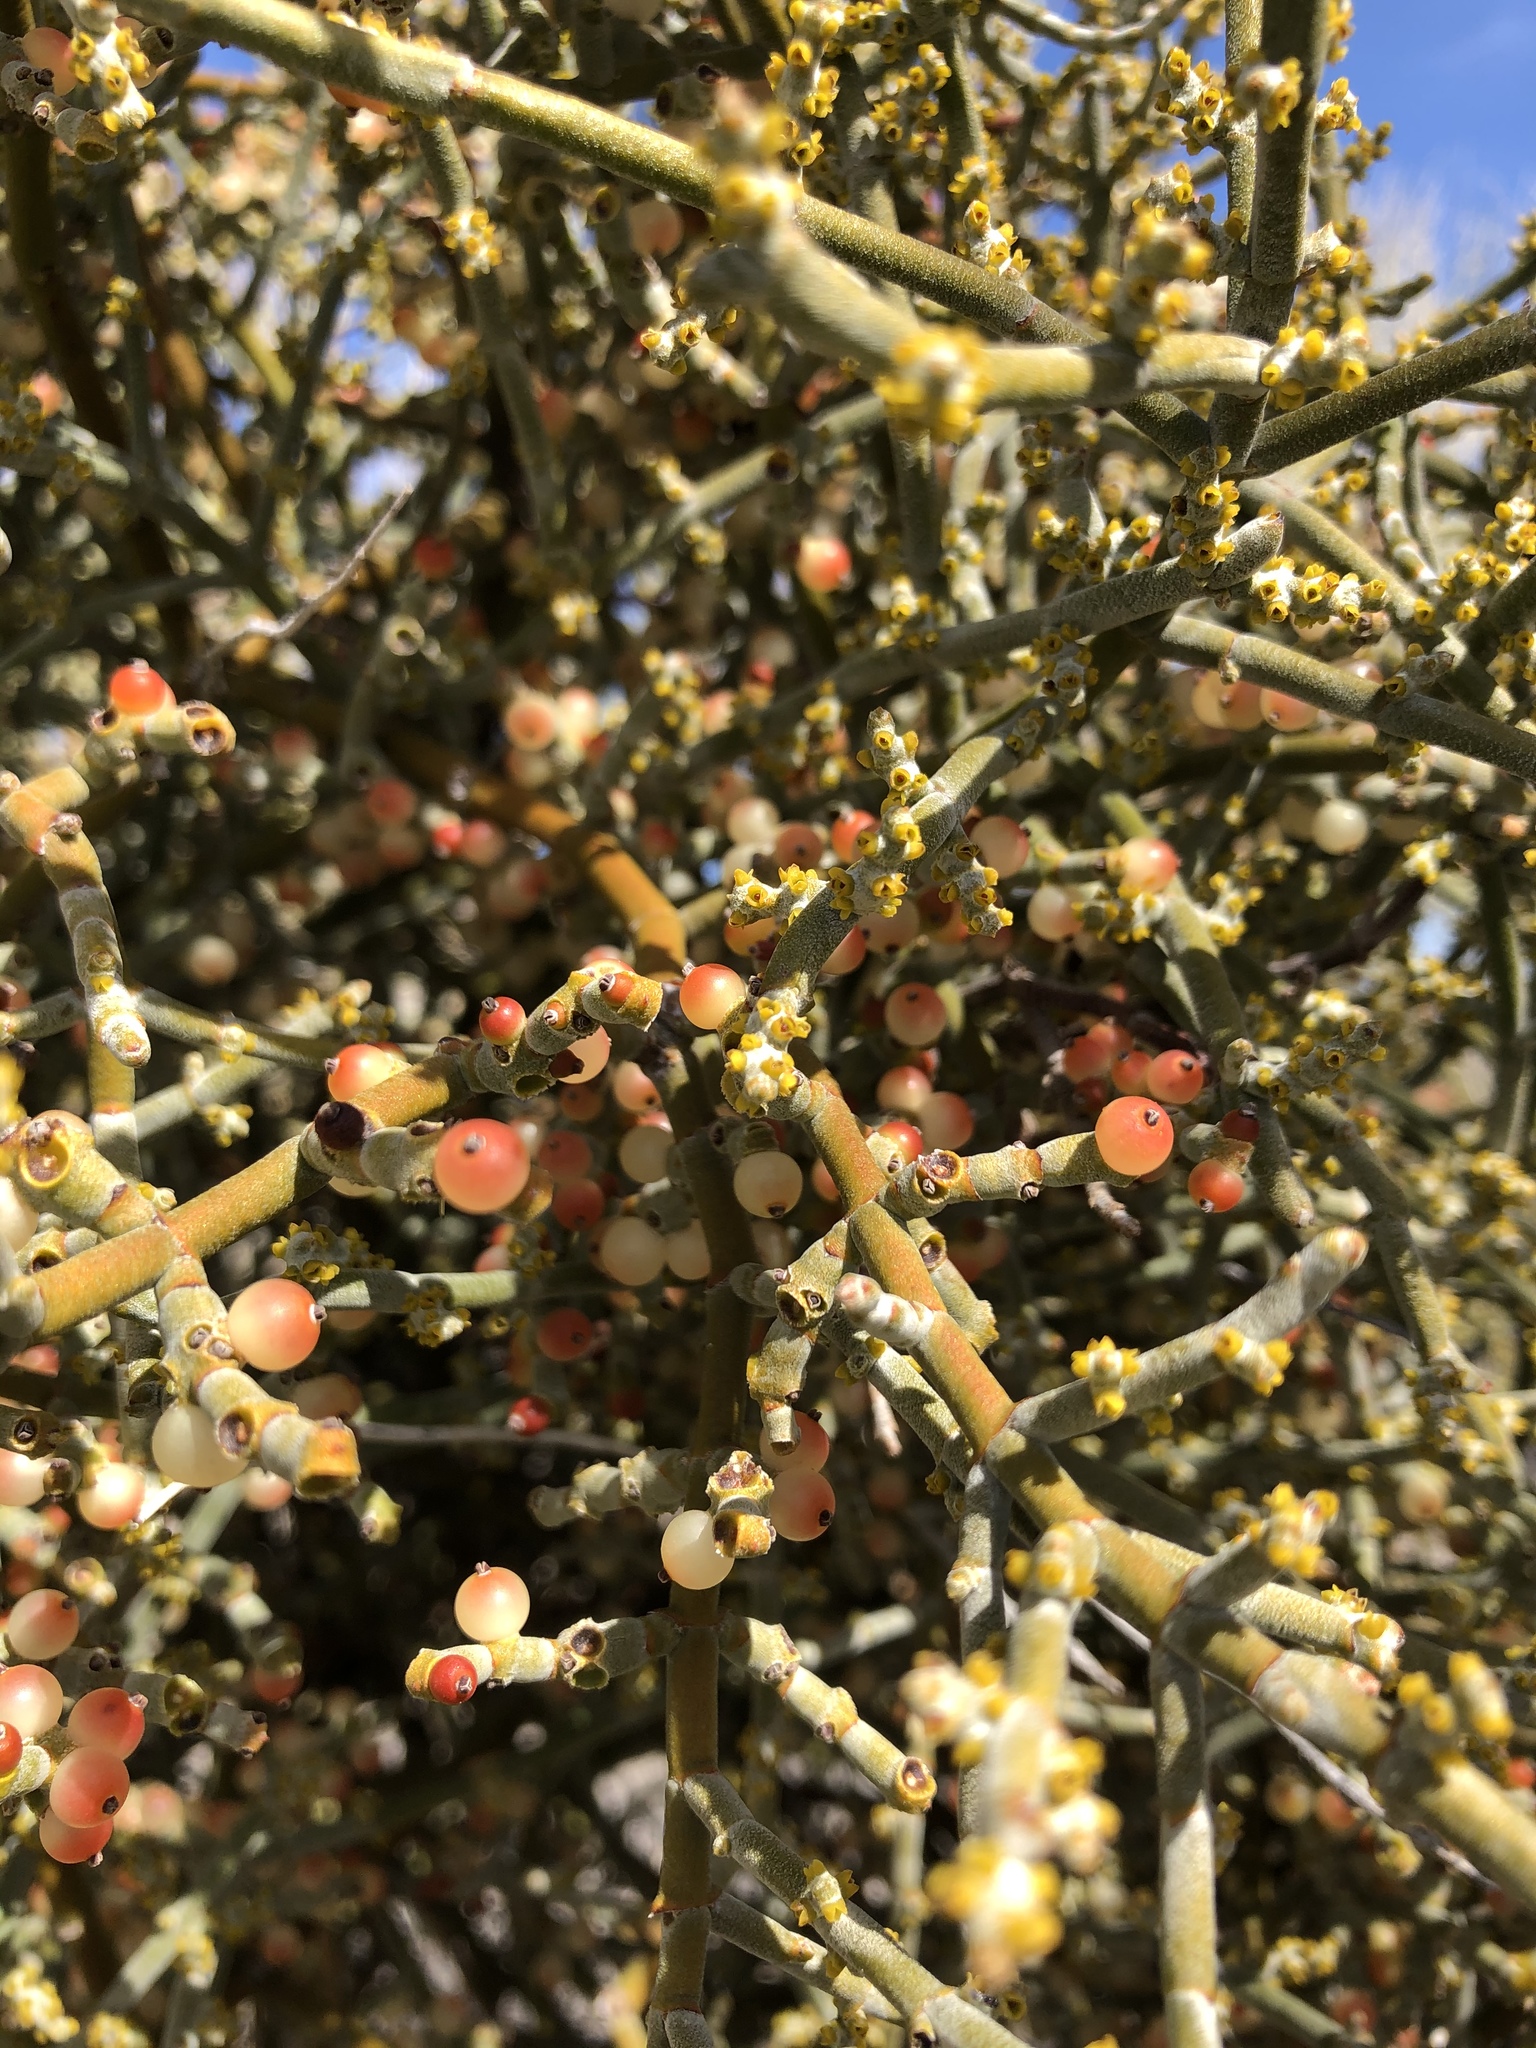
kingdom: Plantae
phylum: Tracheophyta
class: Magnoliopsida
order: Santalales
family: Viscaceae
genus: Phoradendron
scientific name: Phoradendron californicum
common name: Acacia mistletoe
